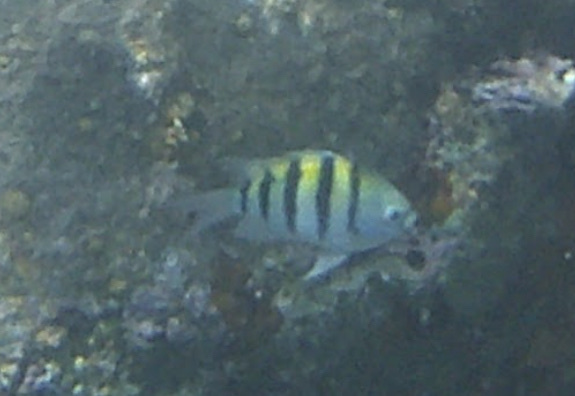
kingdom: Animalia
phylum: Chordata
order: Perciformes
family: Pomacentridae
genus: Abudefduf
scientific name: Abudefduf saxatilis
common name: Sergeant major
